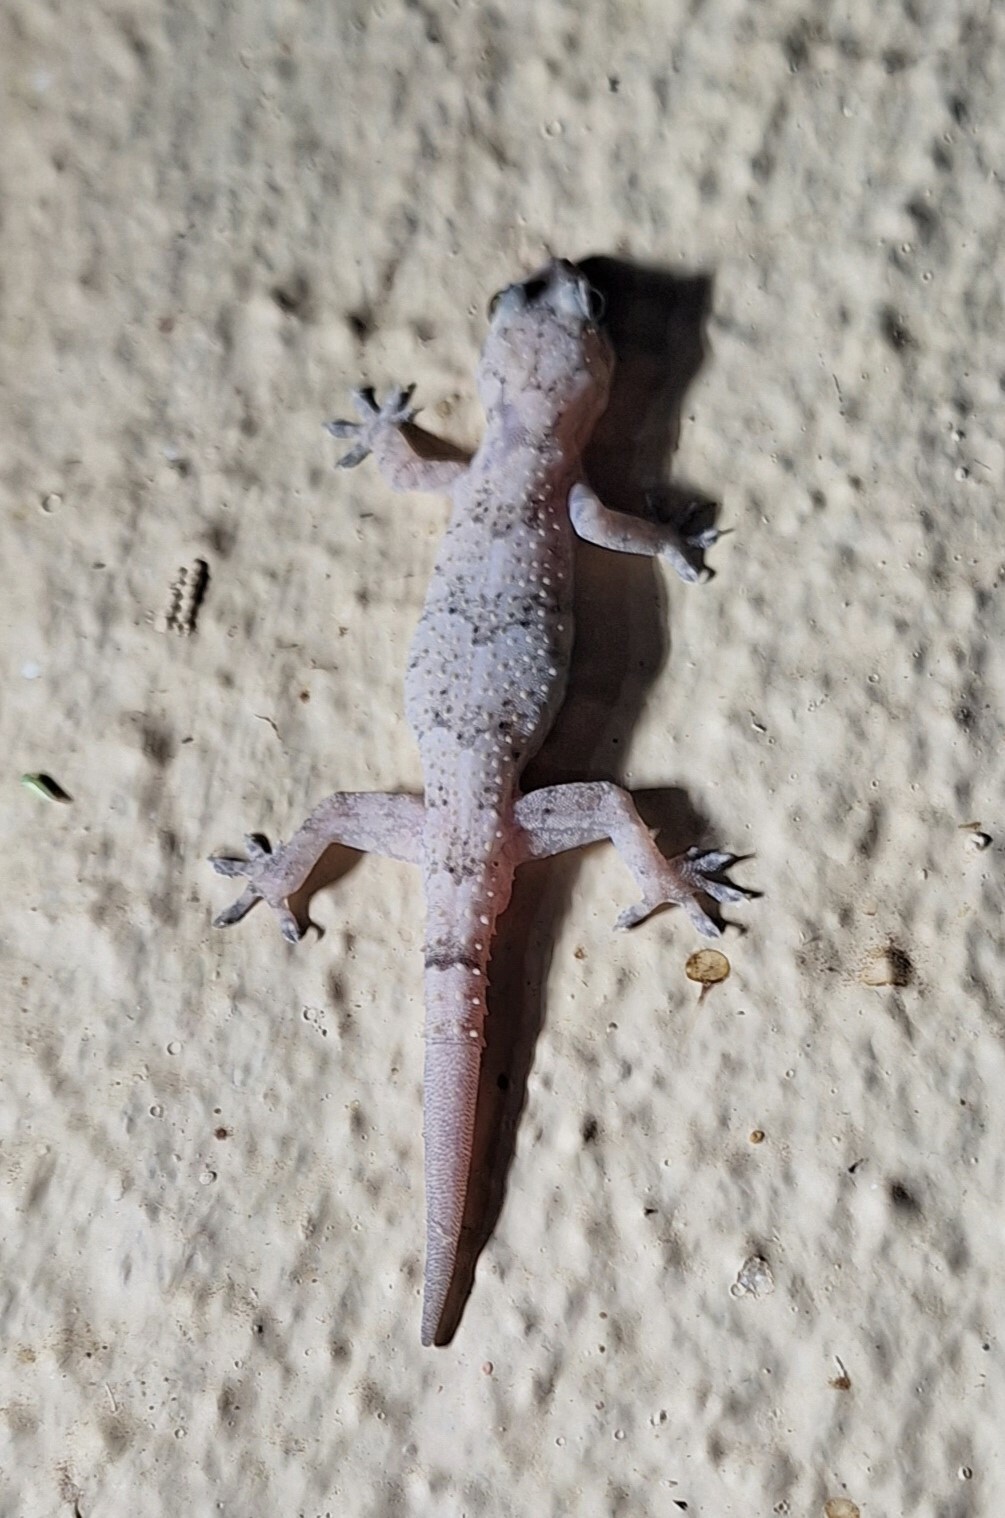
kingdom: Animalia
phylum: Chordata
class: Squamata
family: Gekkonidae
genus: Hemidactylus
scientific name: Hemidactylus mabouia
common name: House gecko
